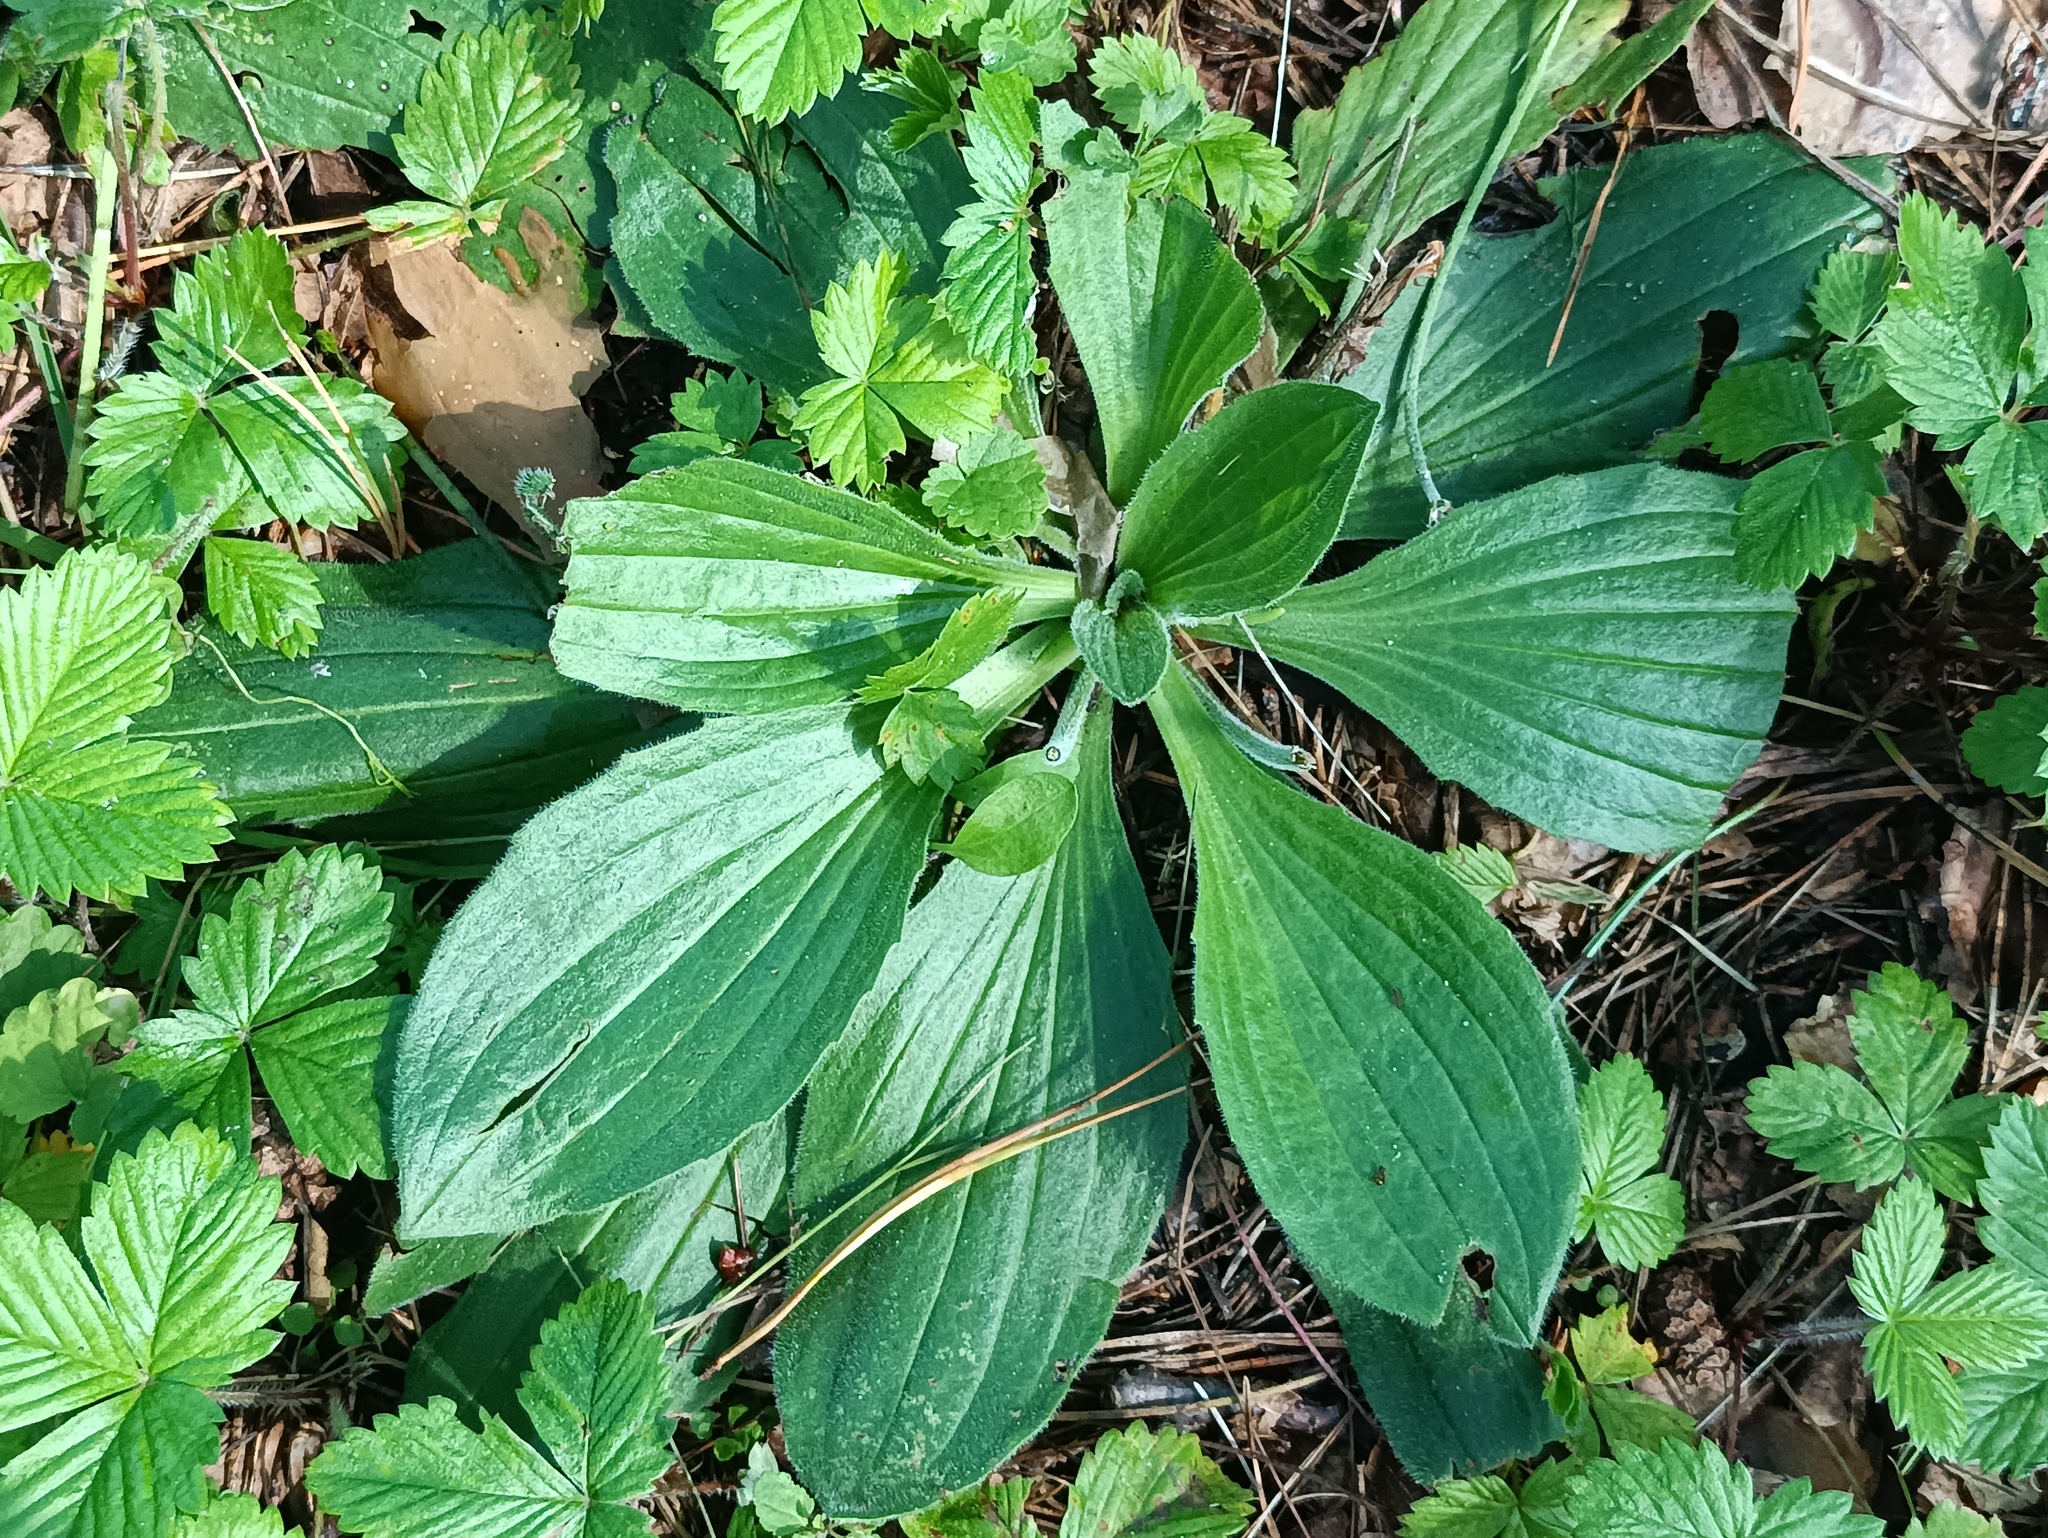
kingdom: Plantae
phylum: Tracheophyta
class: Magnoliopsida
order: Lamiales
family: Plantaginaceae
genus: Plantago
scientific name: Plantago media
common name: Hoary plantain
